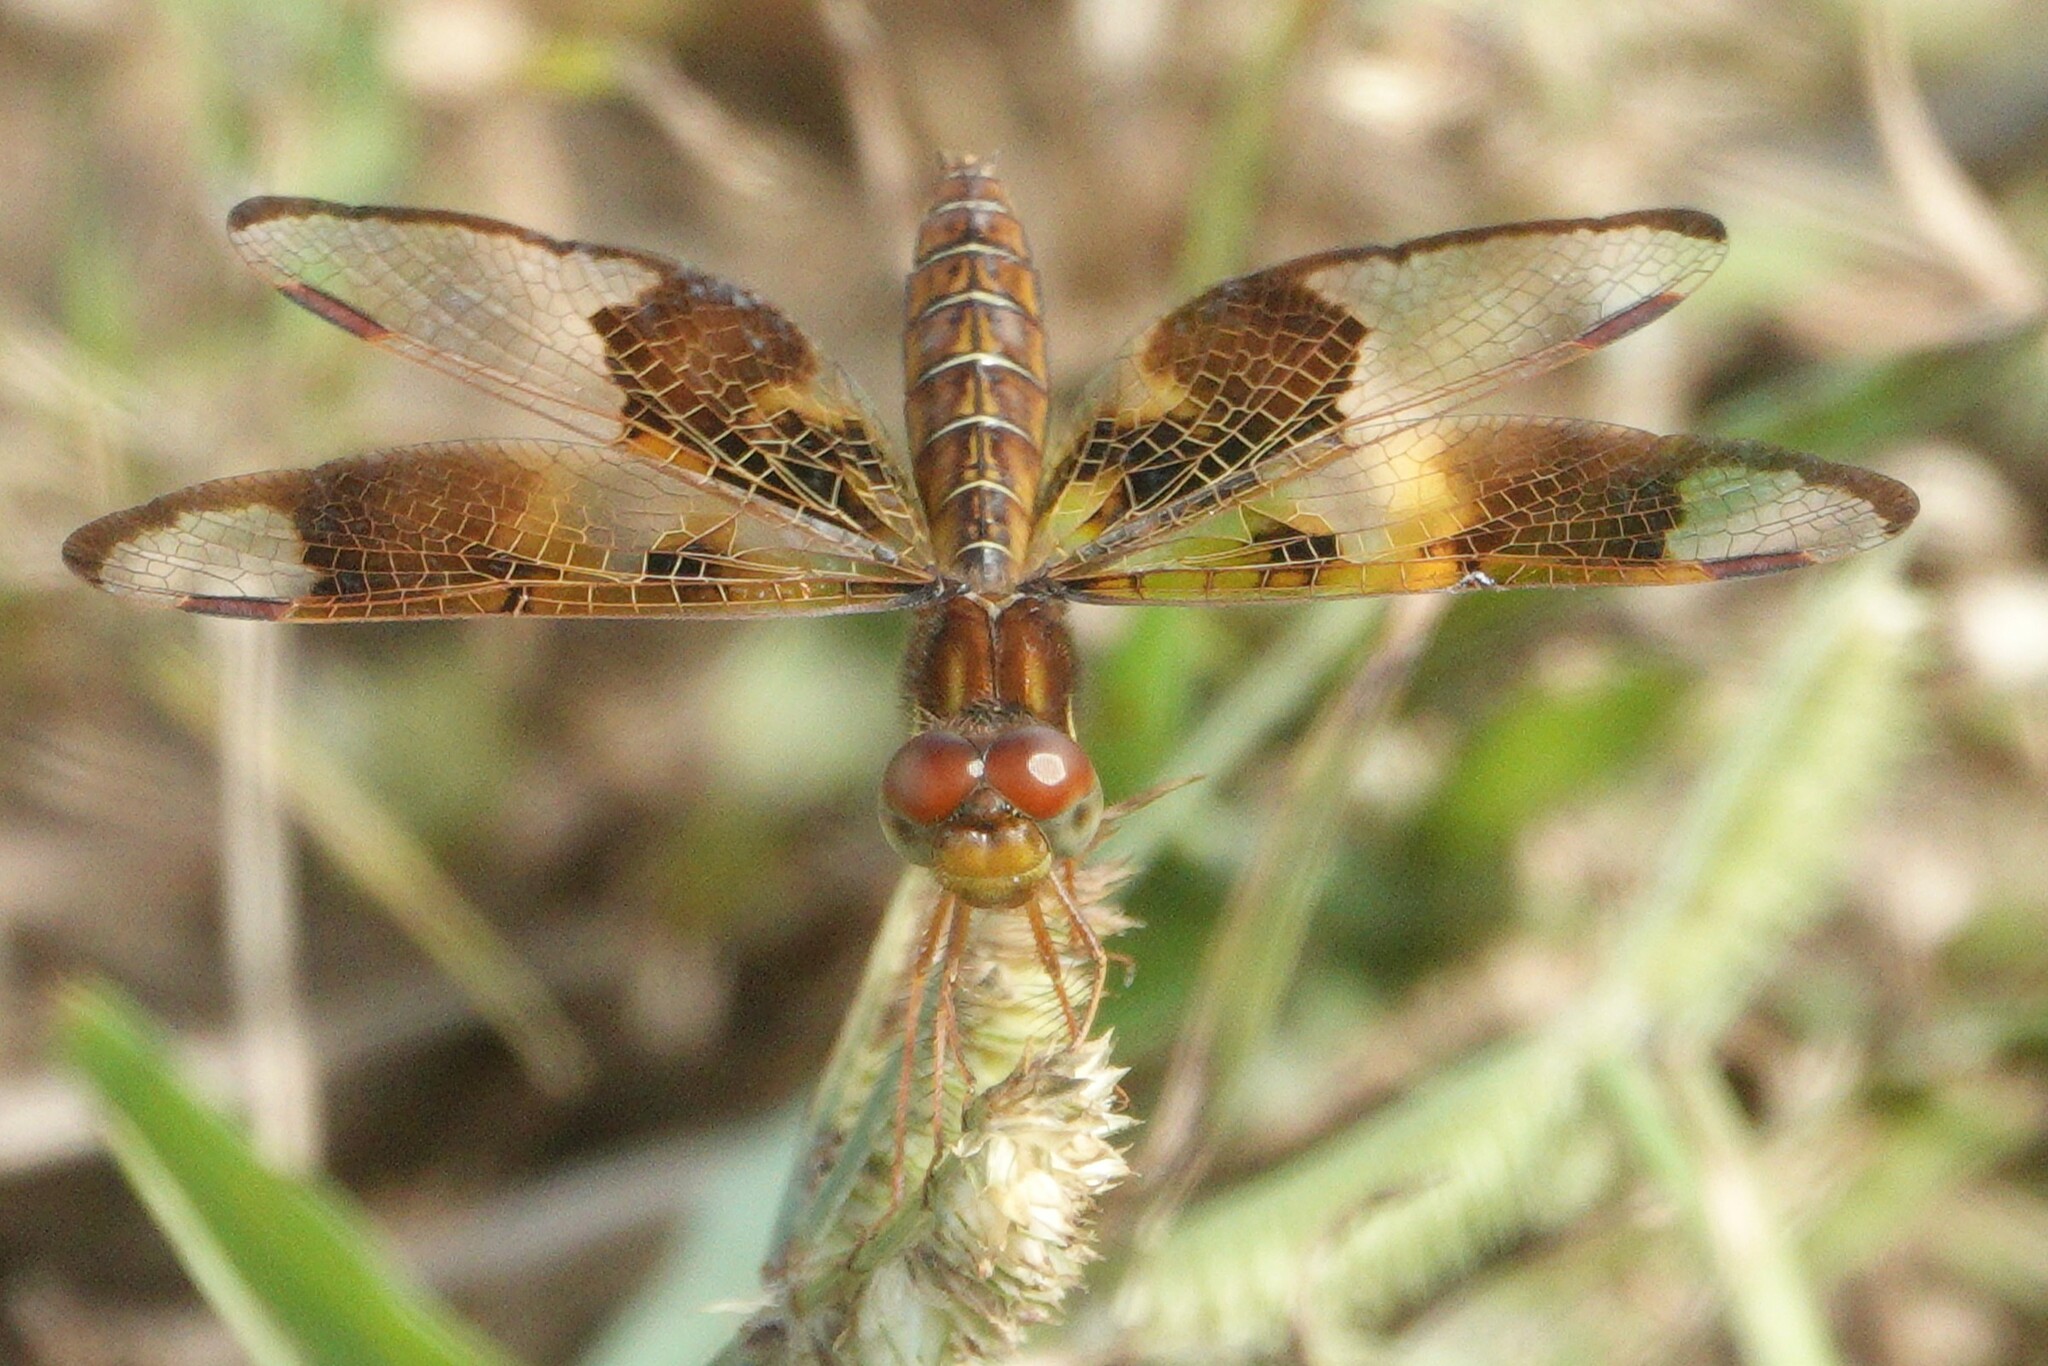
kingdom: Animalia
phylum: Arthropoda
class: Insecta
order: Odonata
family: Libellulidae
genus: Perithemis
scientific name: Perithemis tenera
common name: Eastern amberwing
